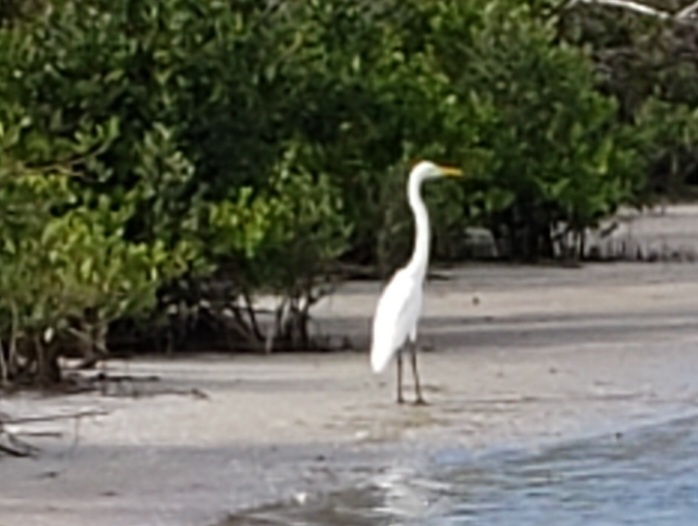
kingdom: Animalia
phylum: Chordata
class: Aves
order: Pelecaniformes
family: Ardeidae
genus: Ardea
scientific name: Ardea alba
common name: Great egret
